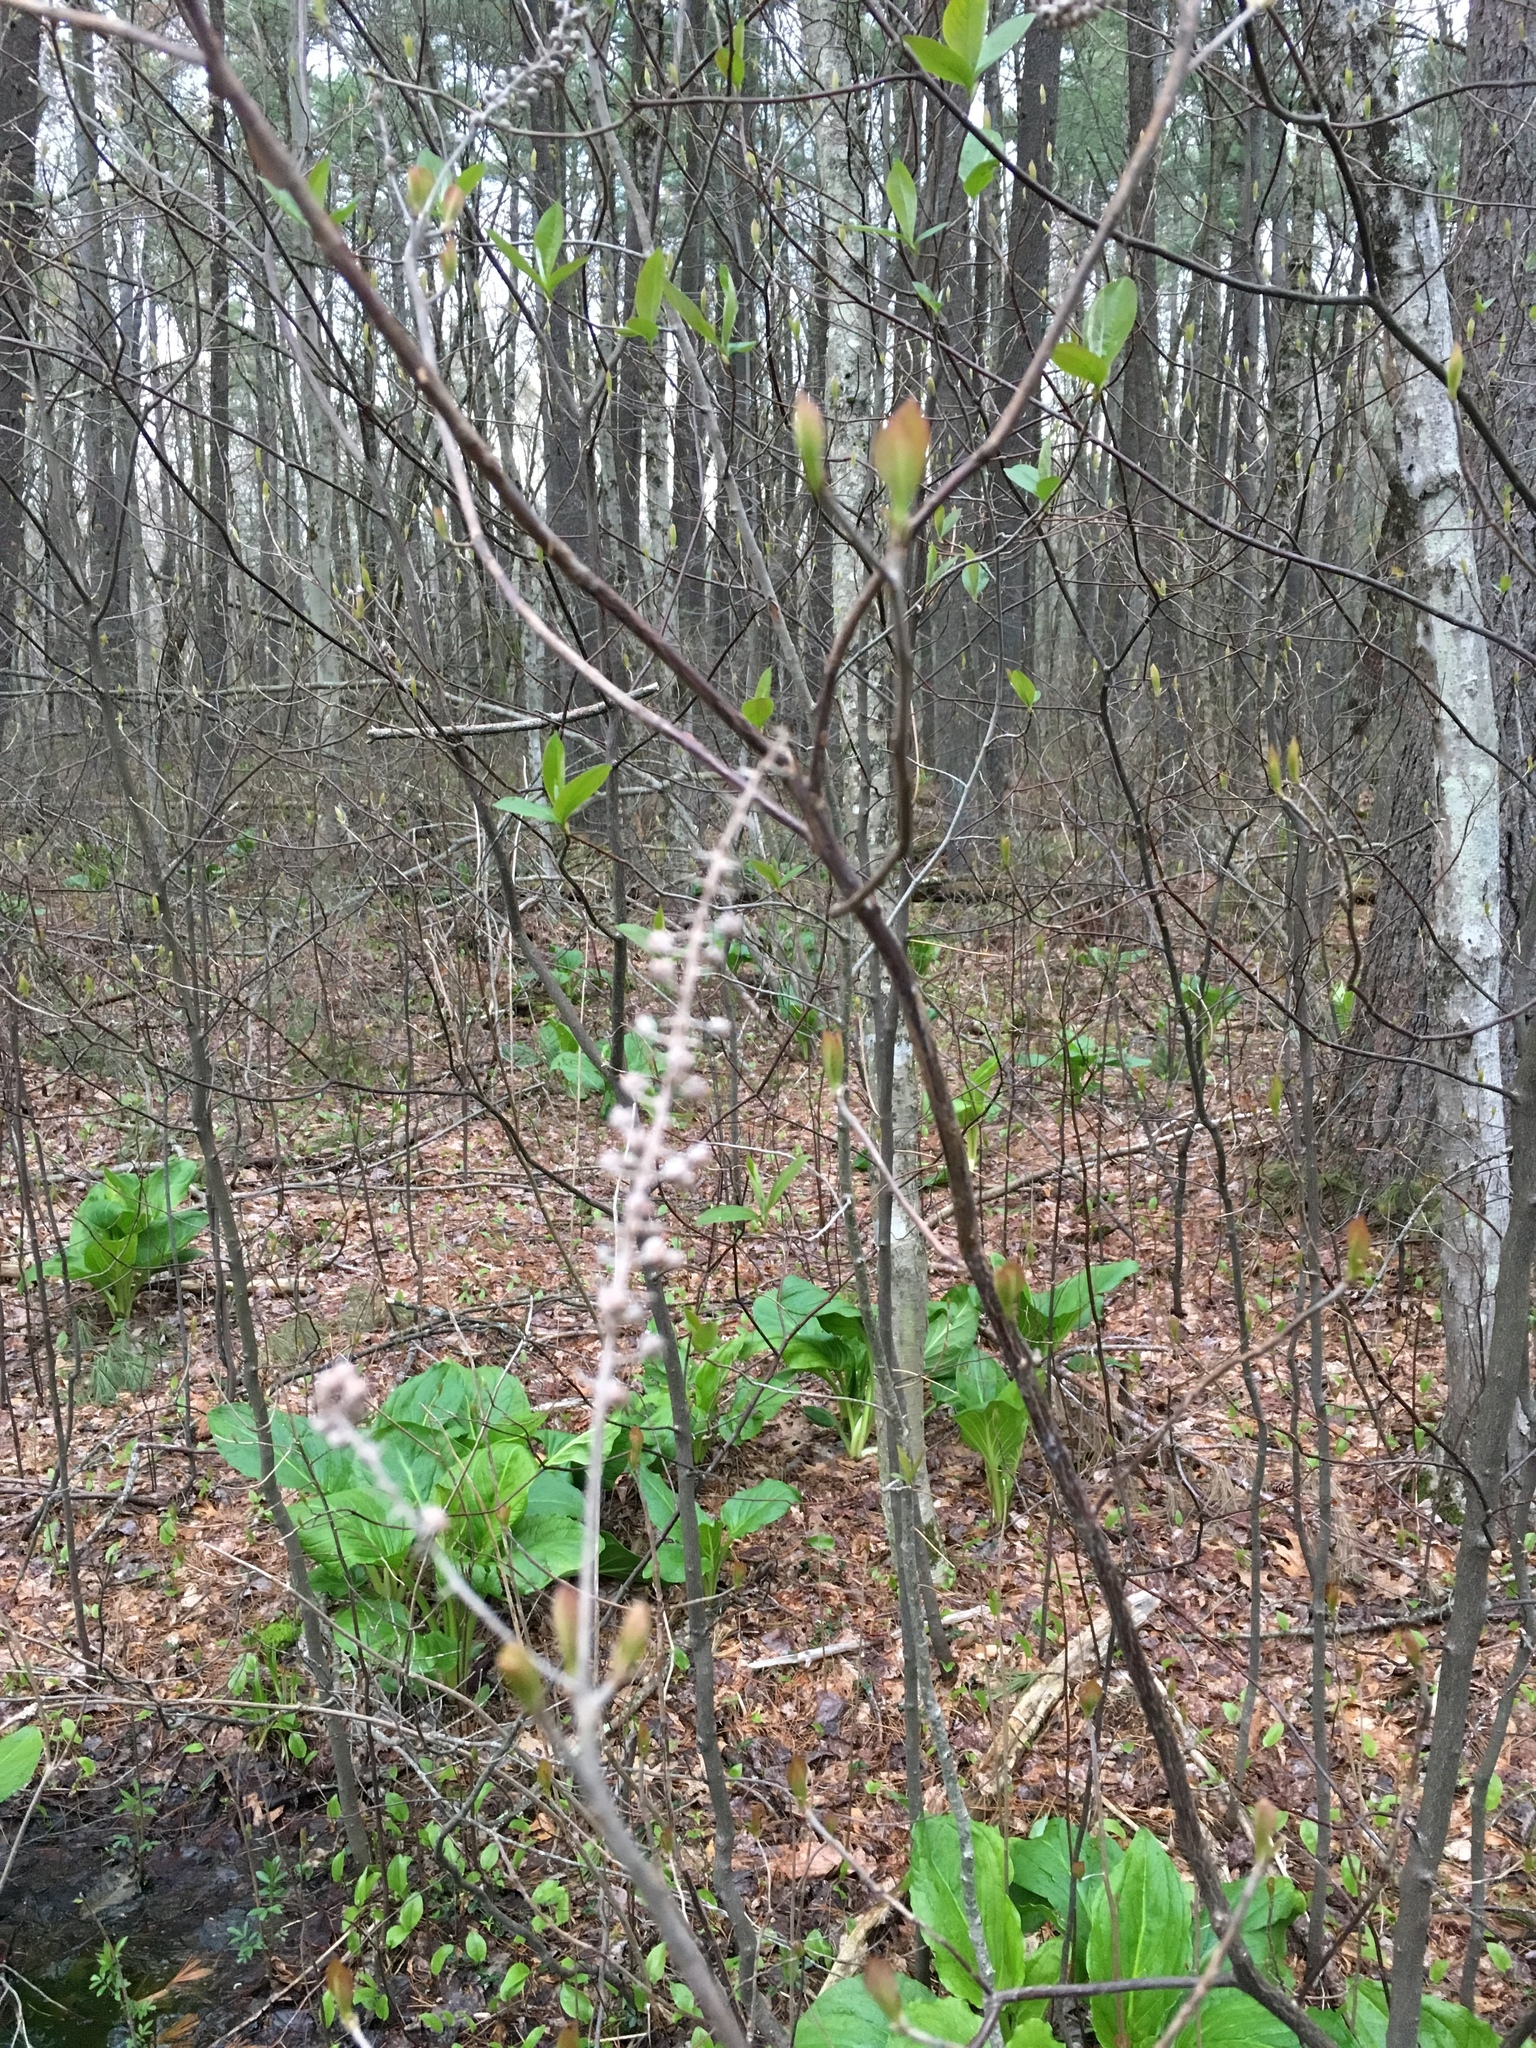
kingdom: Plantae
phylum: Tracheophyta
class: Magnoliopsida
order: Ericales
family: Clethraceae
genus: Clethra
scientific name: Clethra alnifolia
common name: Sweet pepperbush
